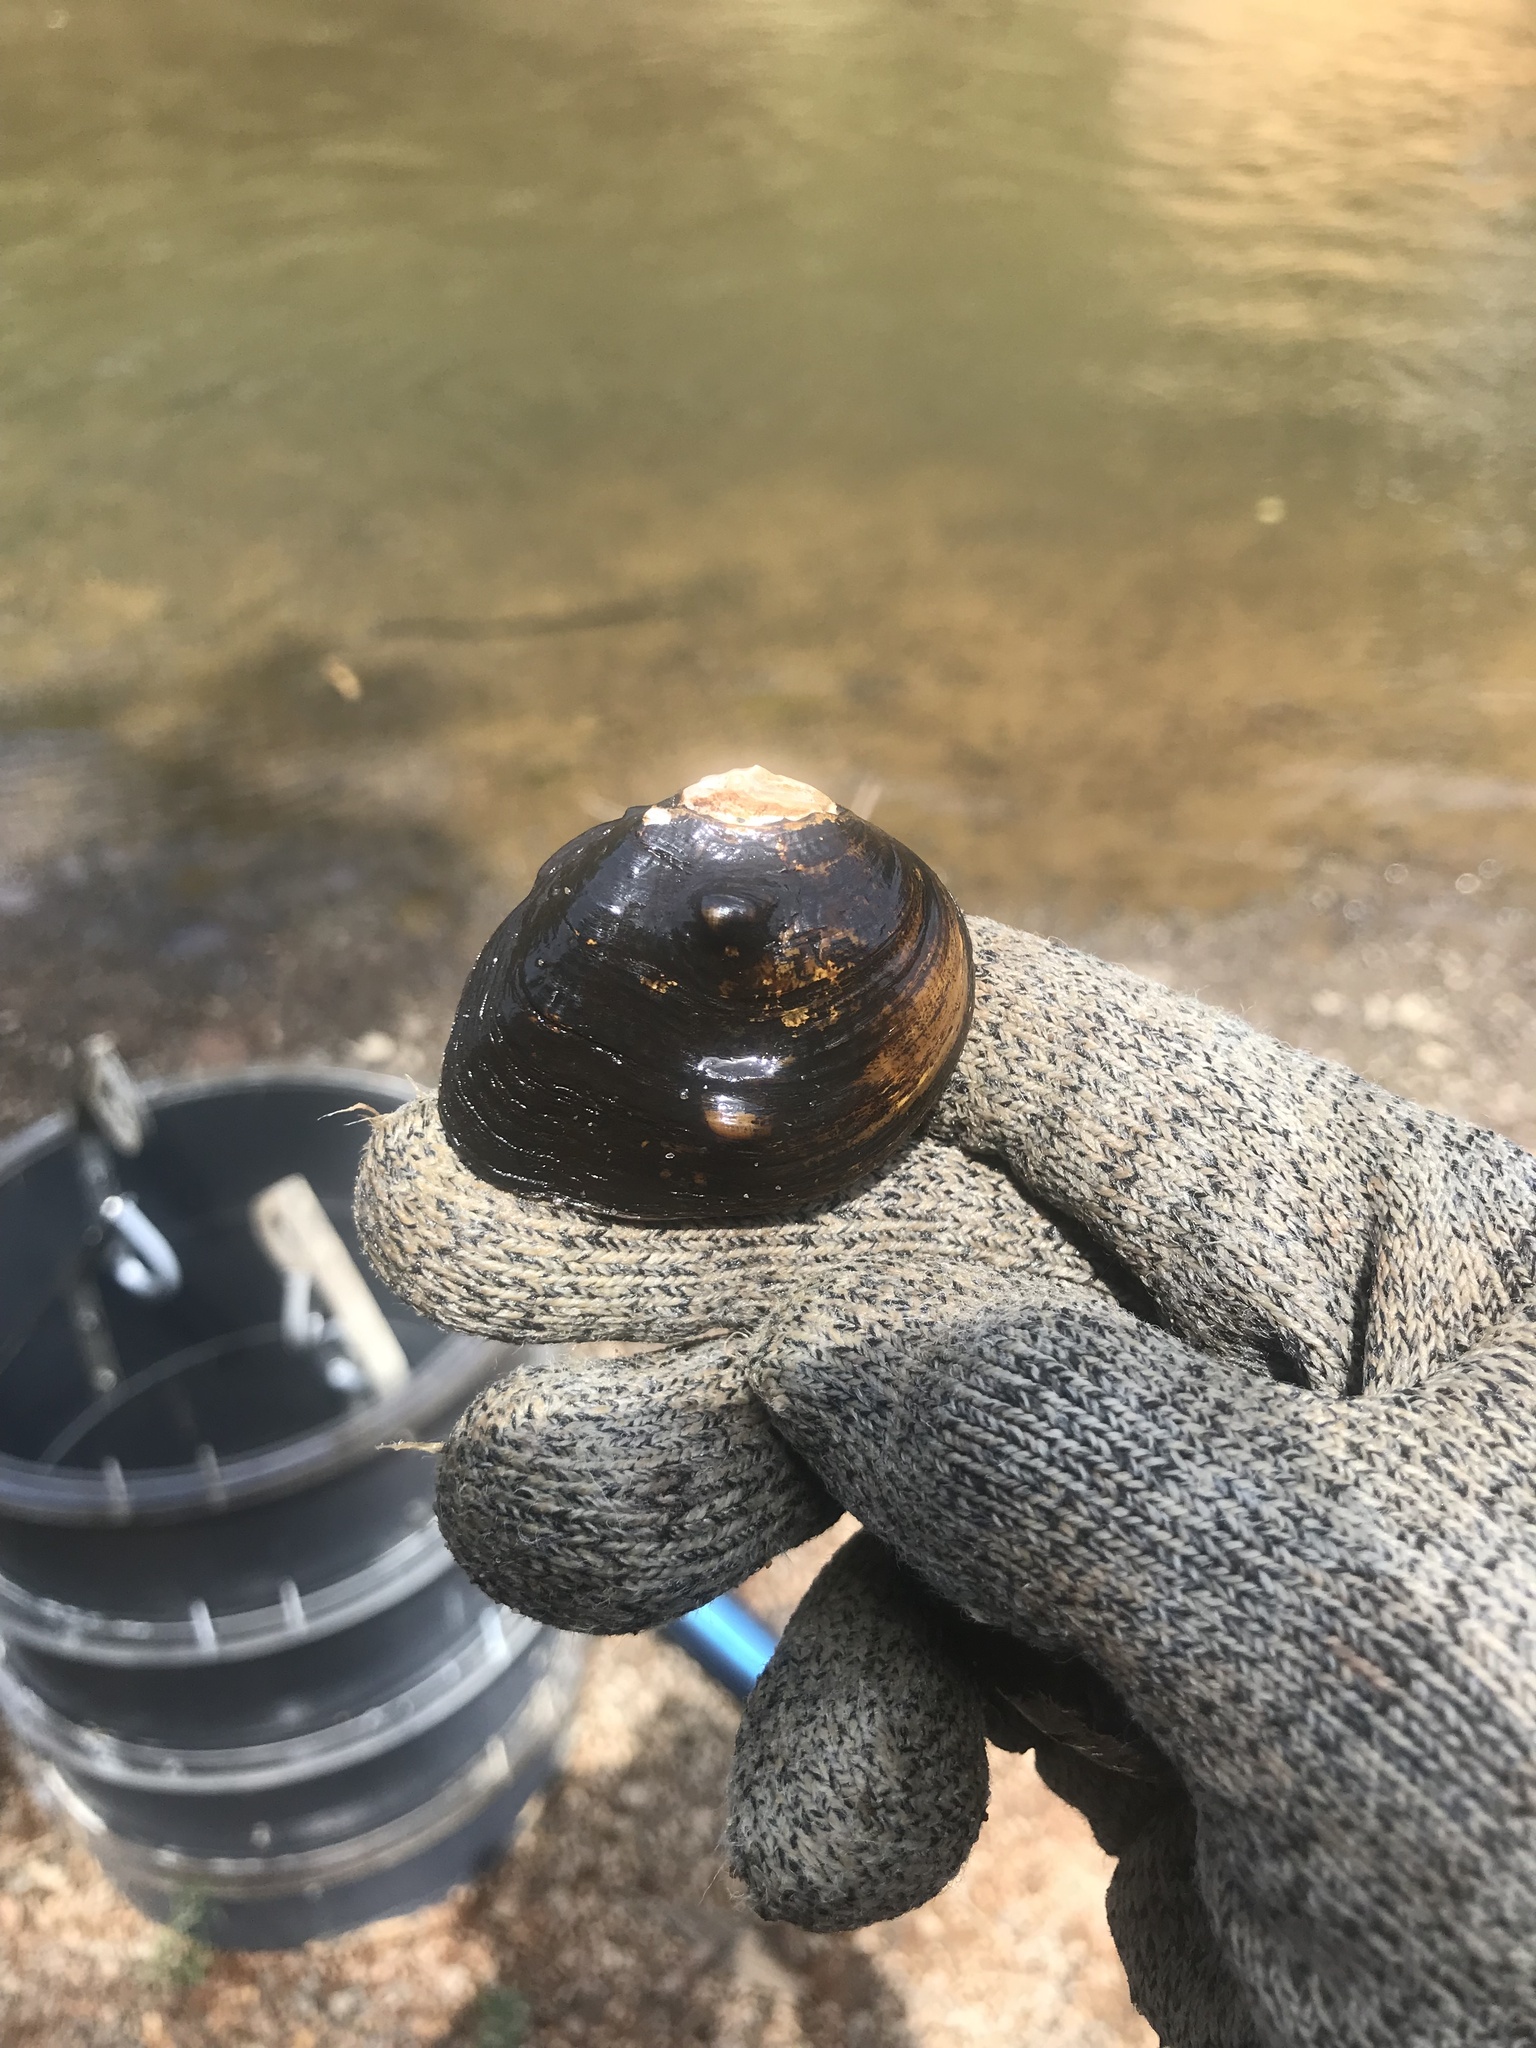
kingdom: Animalia
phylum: Mollusca
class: Bivalvia
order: Unionida
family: Unionidae
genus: Obliquaria
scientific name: Obliquaria reflexa
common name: Threehorn wartyback
